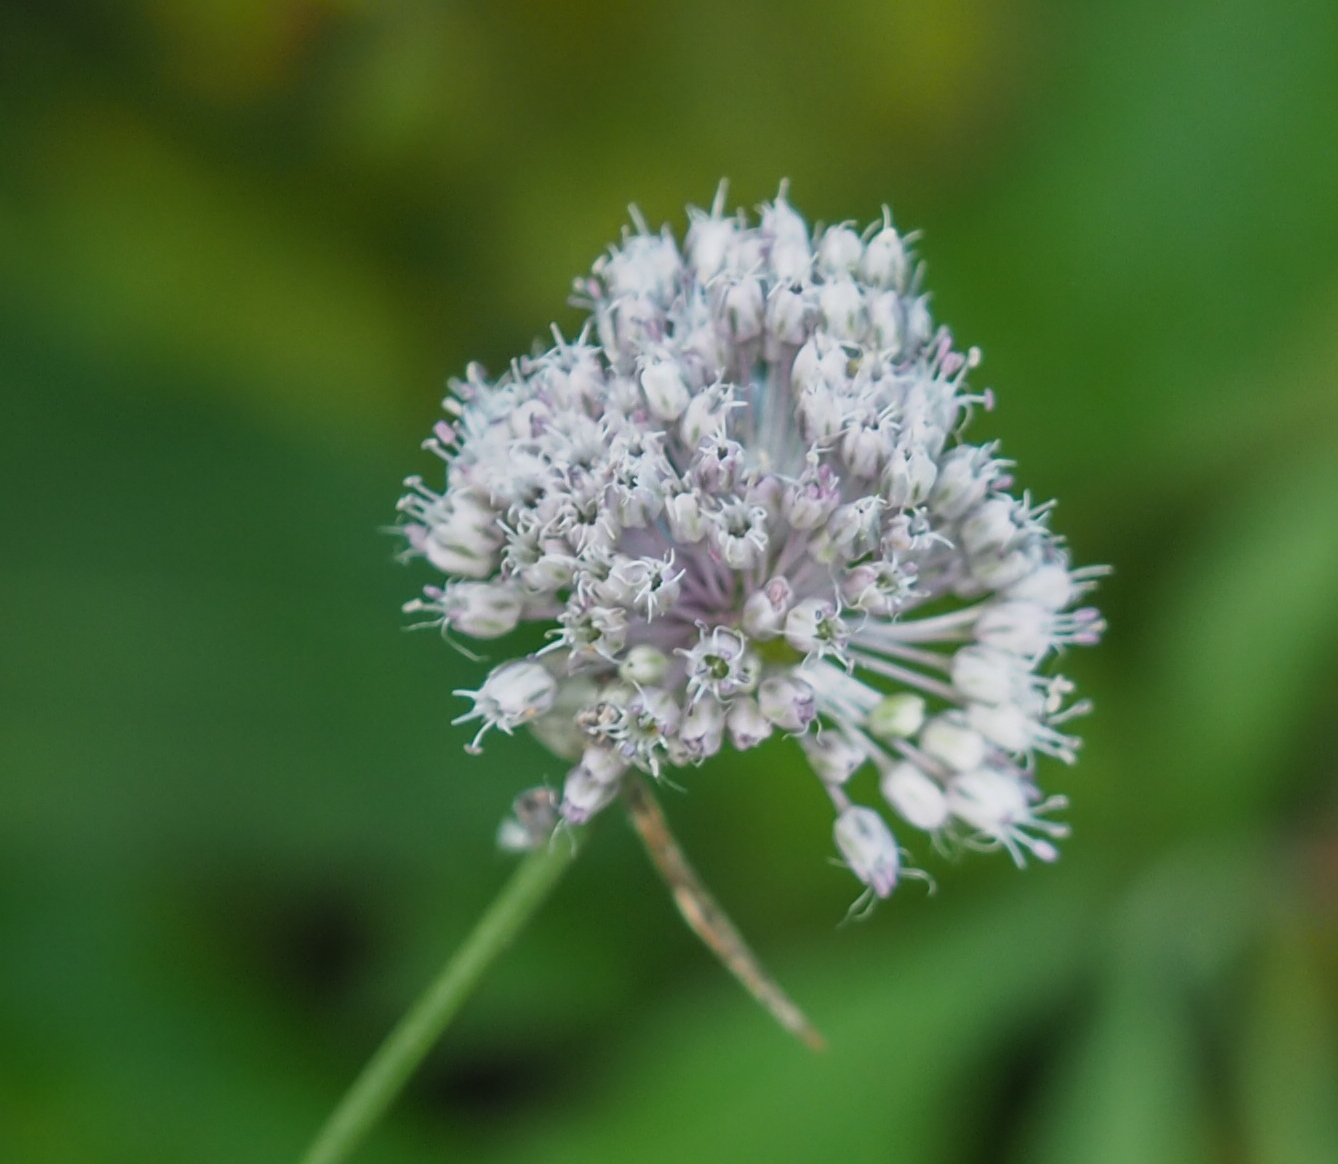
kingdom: Plantae
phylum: Tracheophyta
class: Liliopsida
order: Asparagales
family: Amaryllidaceae
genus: Allium
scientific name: Allium vineale
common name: Crow garlic
